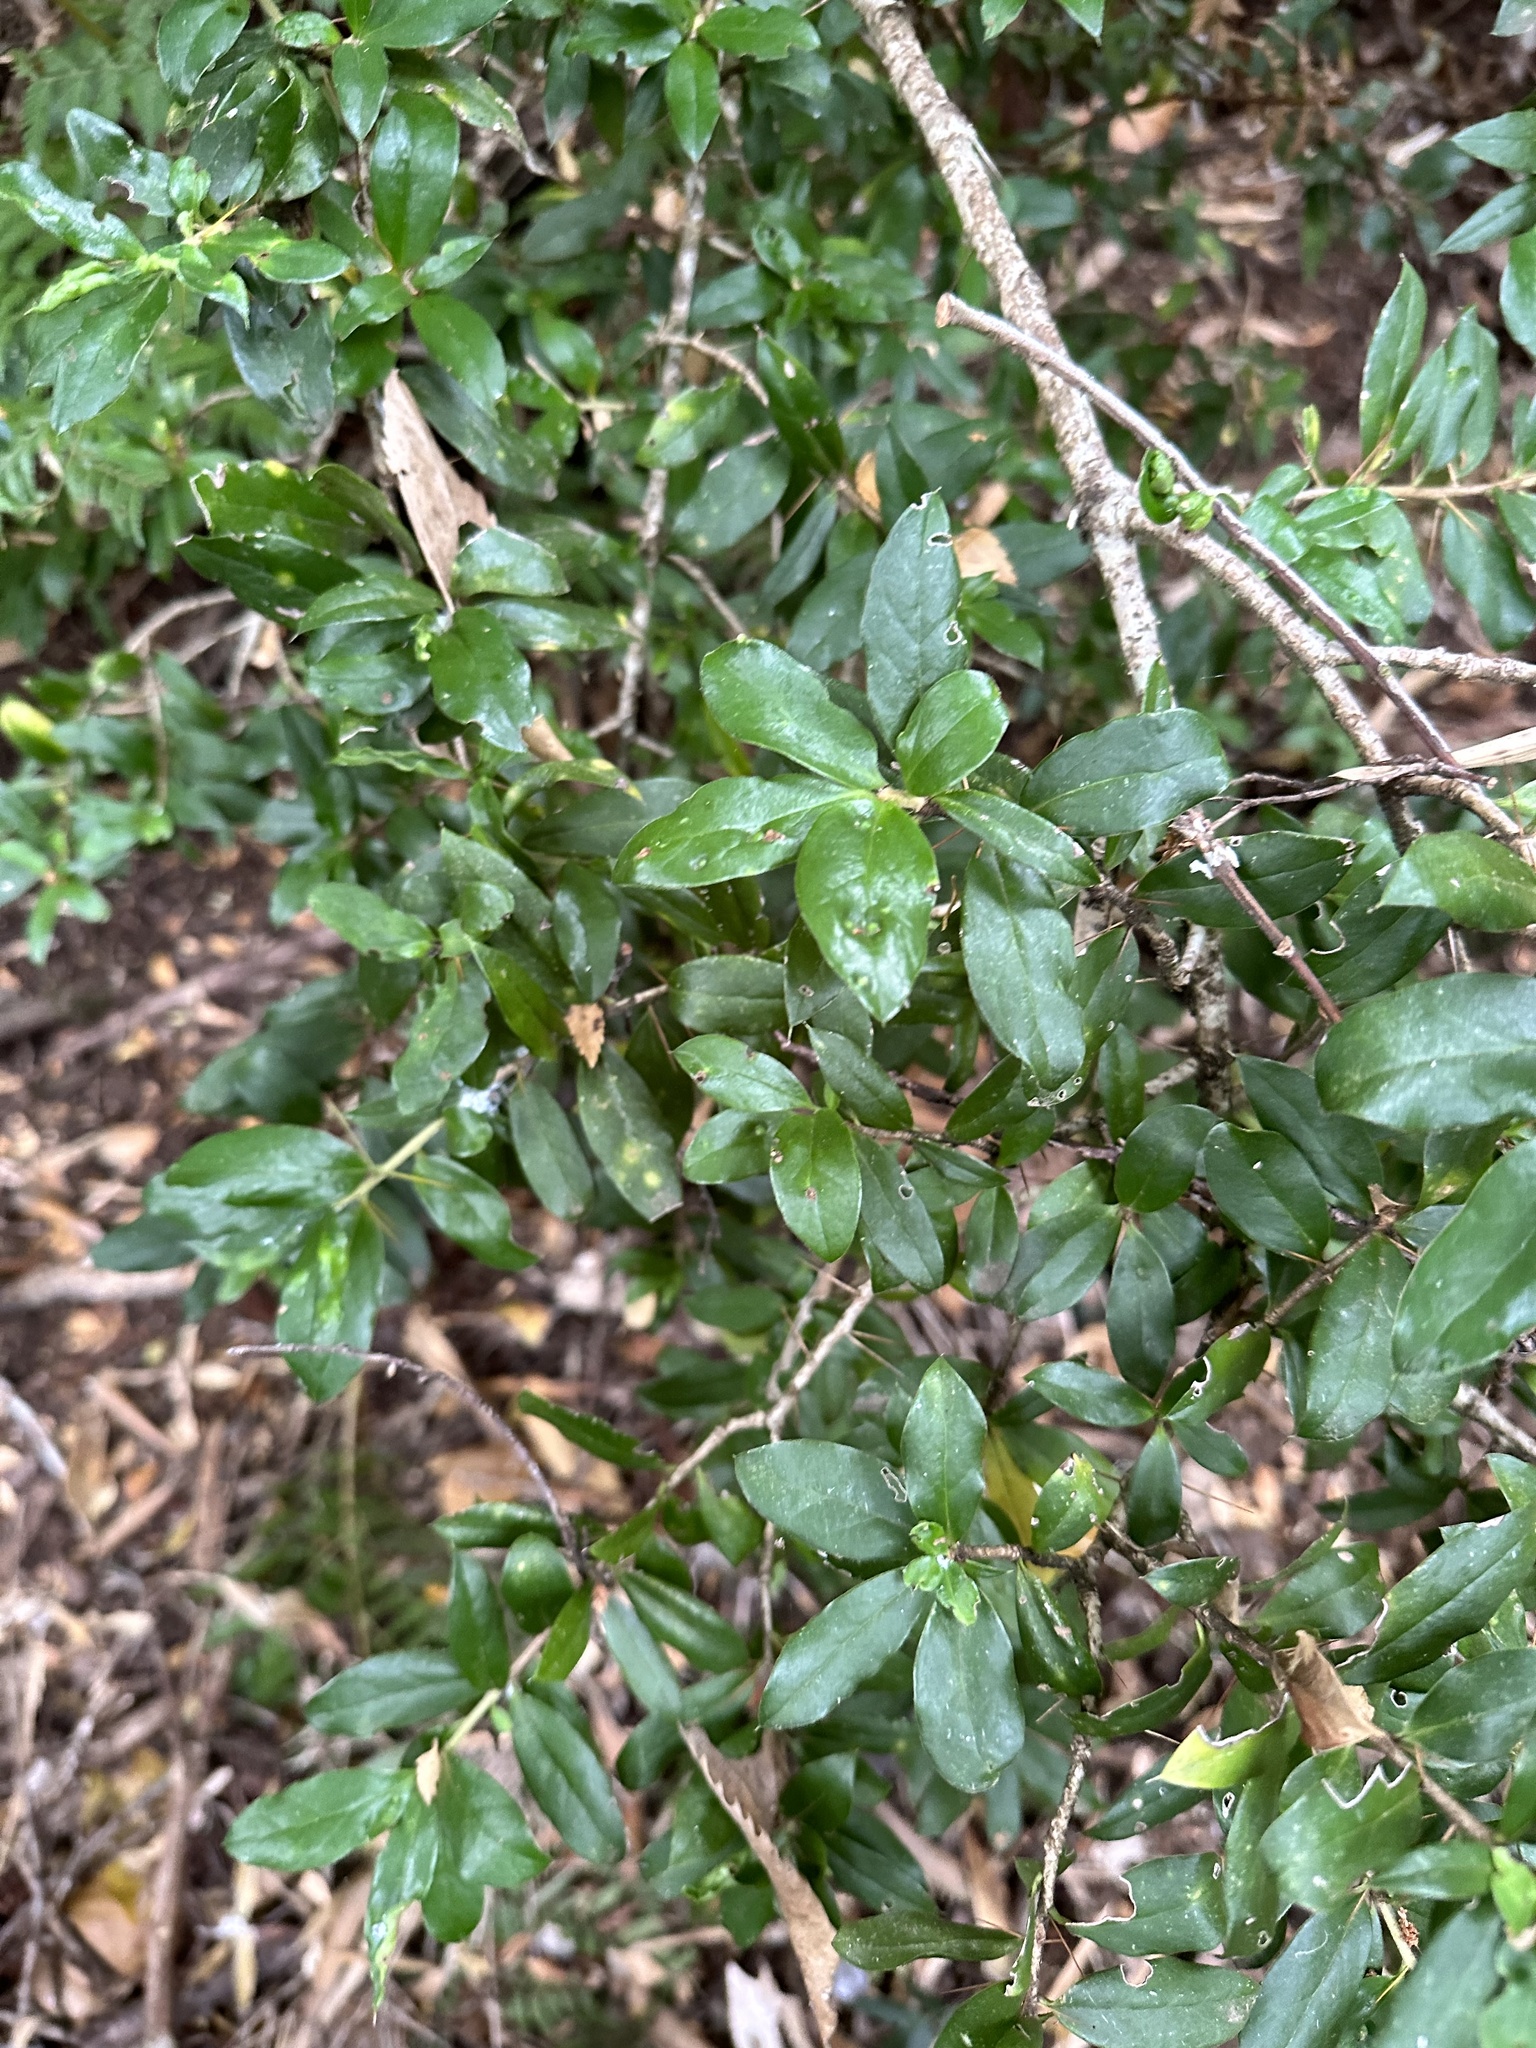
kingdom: Plantae
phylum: Tracheophyta
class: Magnoliopsida
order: Asterales
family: Asteraceae
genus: Archidasyphyllum
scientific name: Archidasyphyllum diacanthoides
